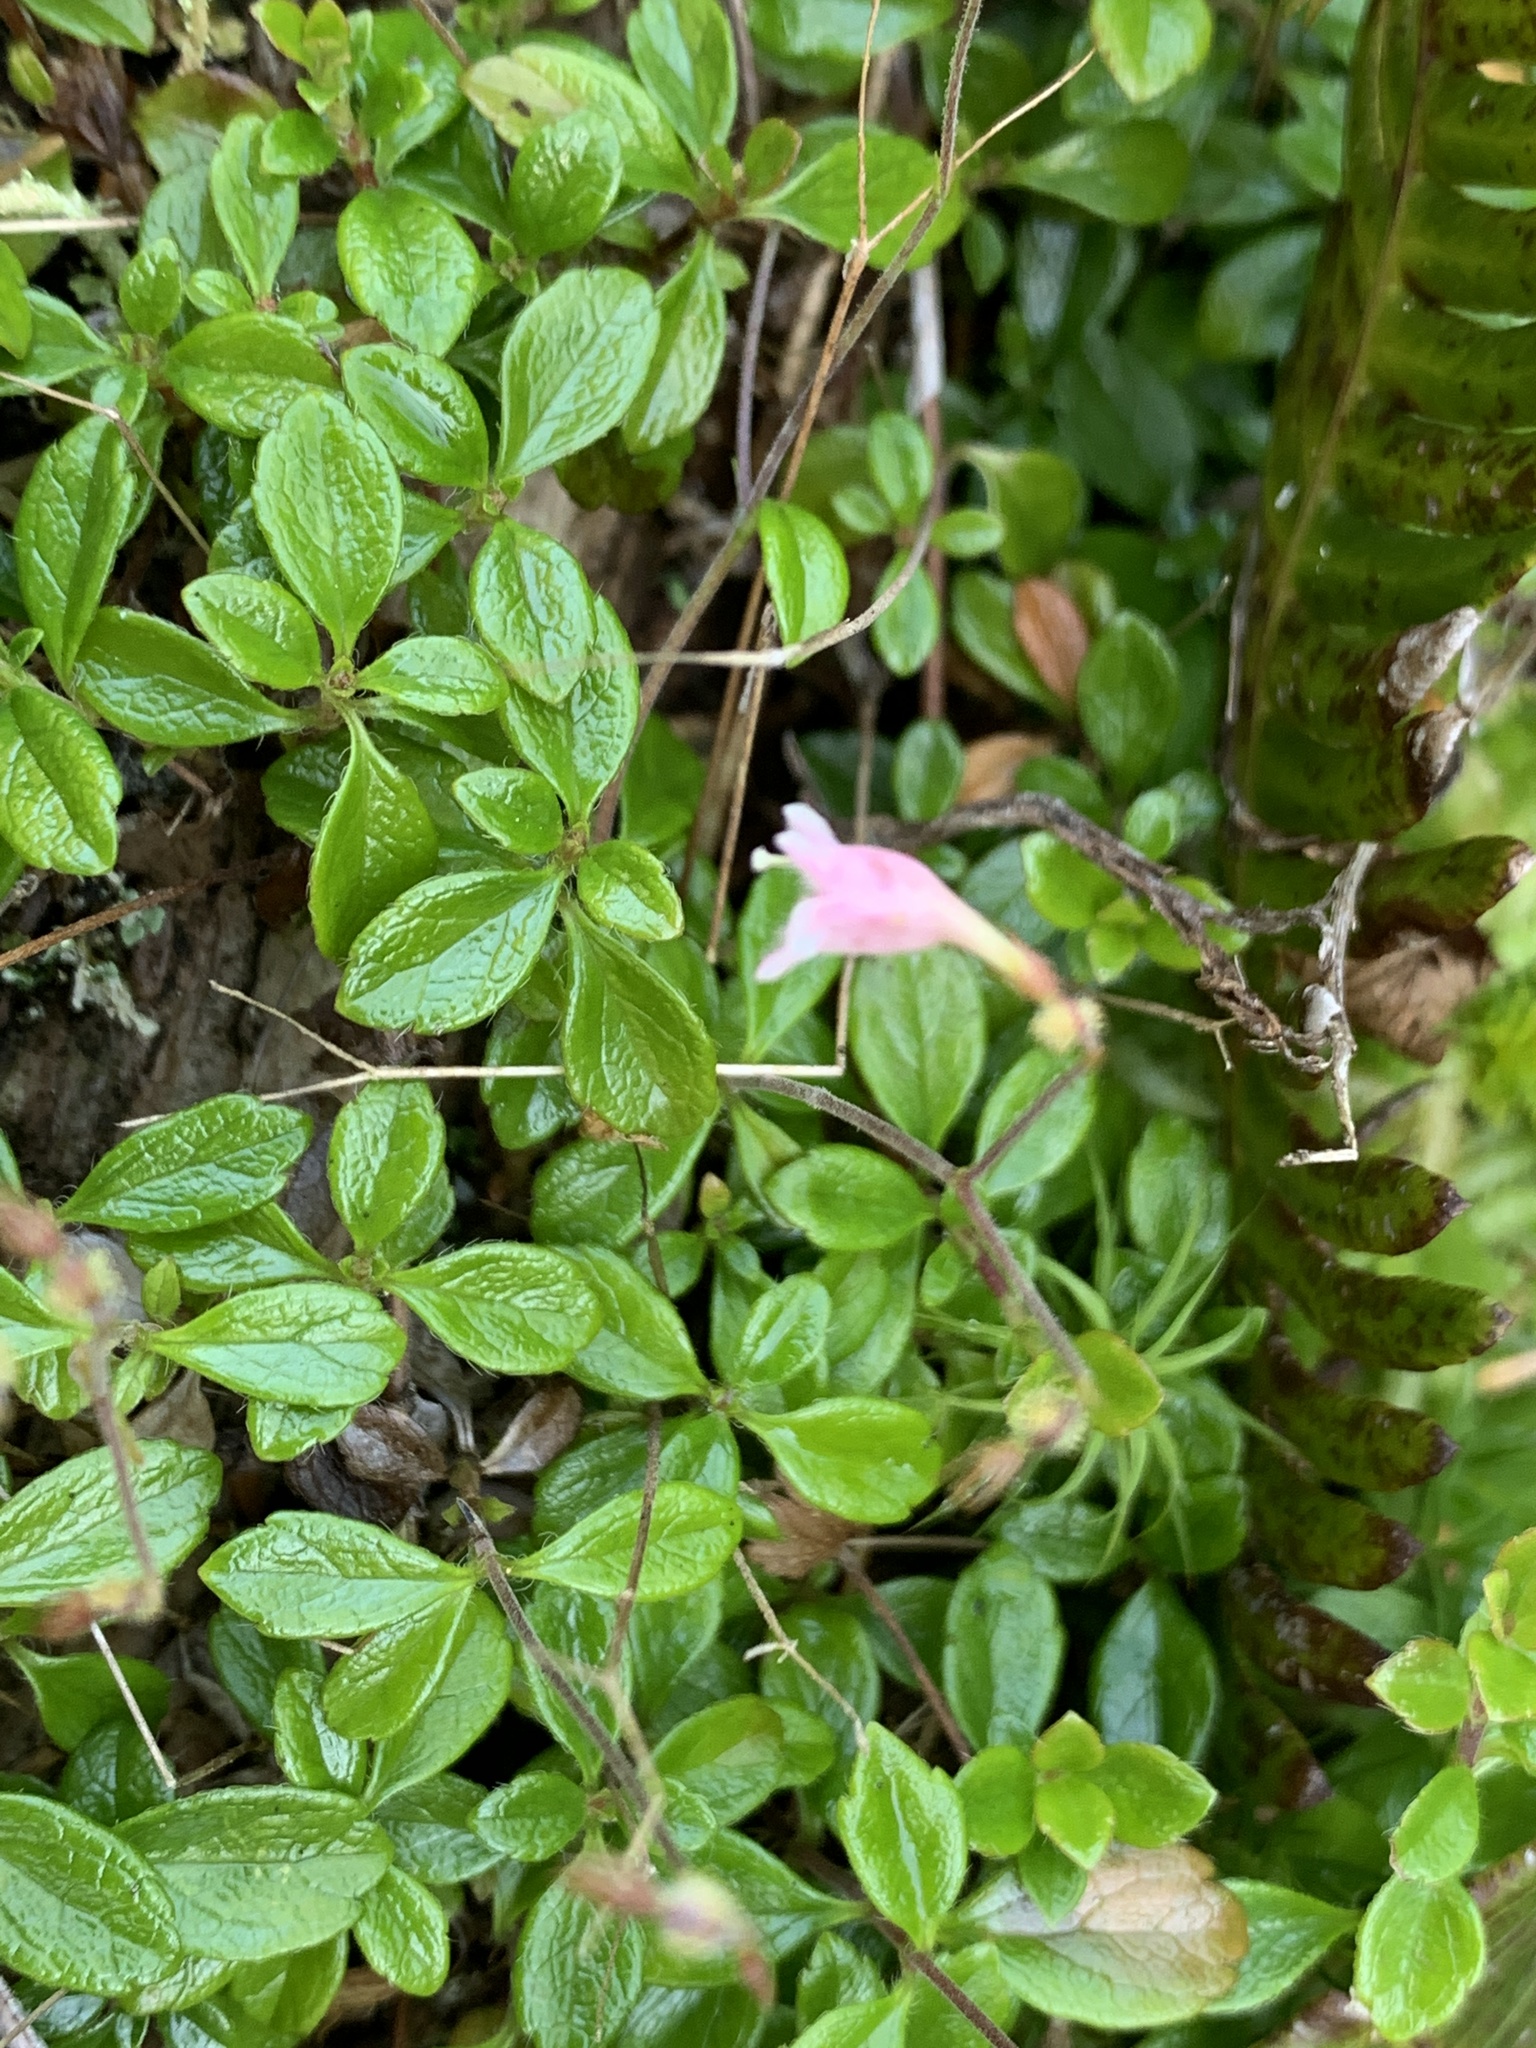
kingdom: Plantae
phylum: Tracheophyta
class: Magnoliopsida
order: Dipsacales
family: Caprifoliaceae
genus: Linnaea
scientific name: Linnaea borealis
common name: Twinflower
